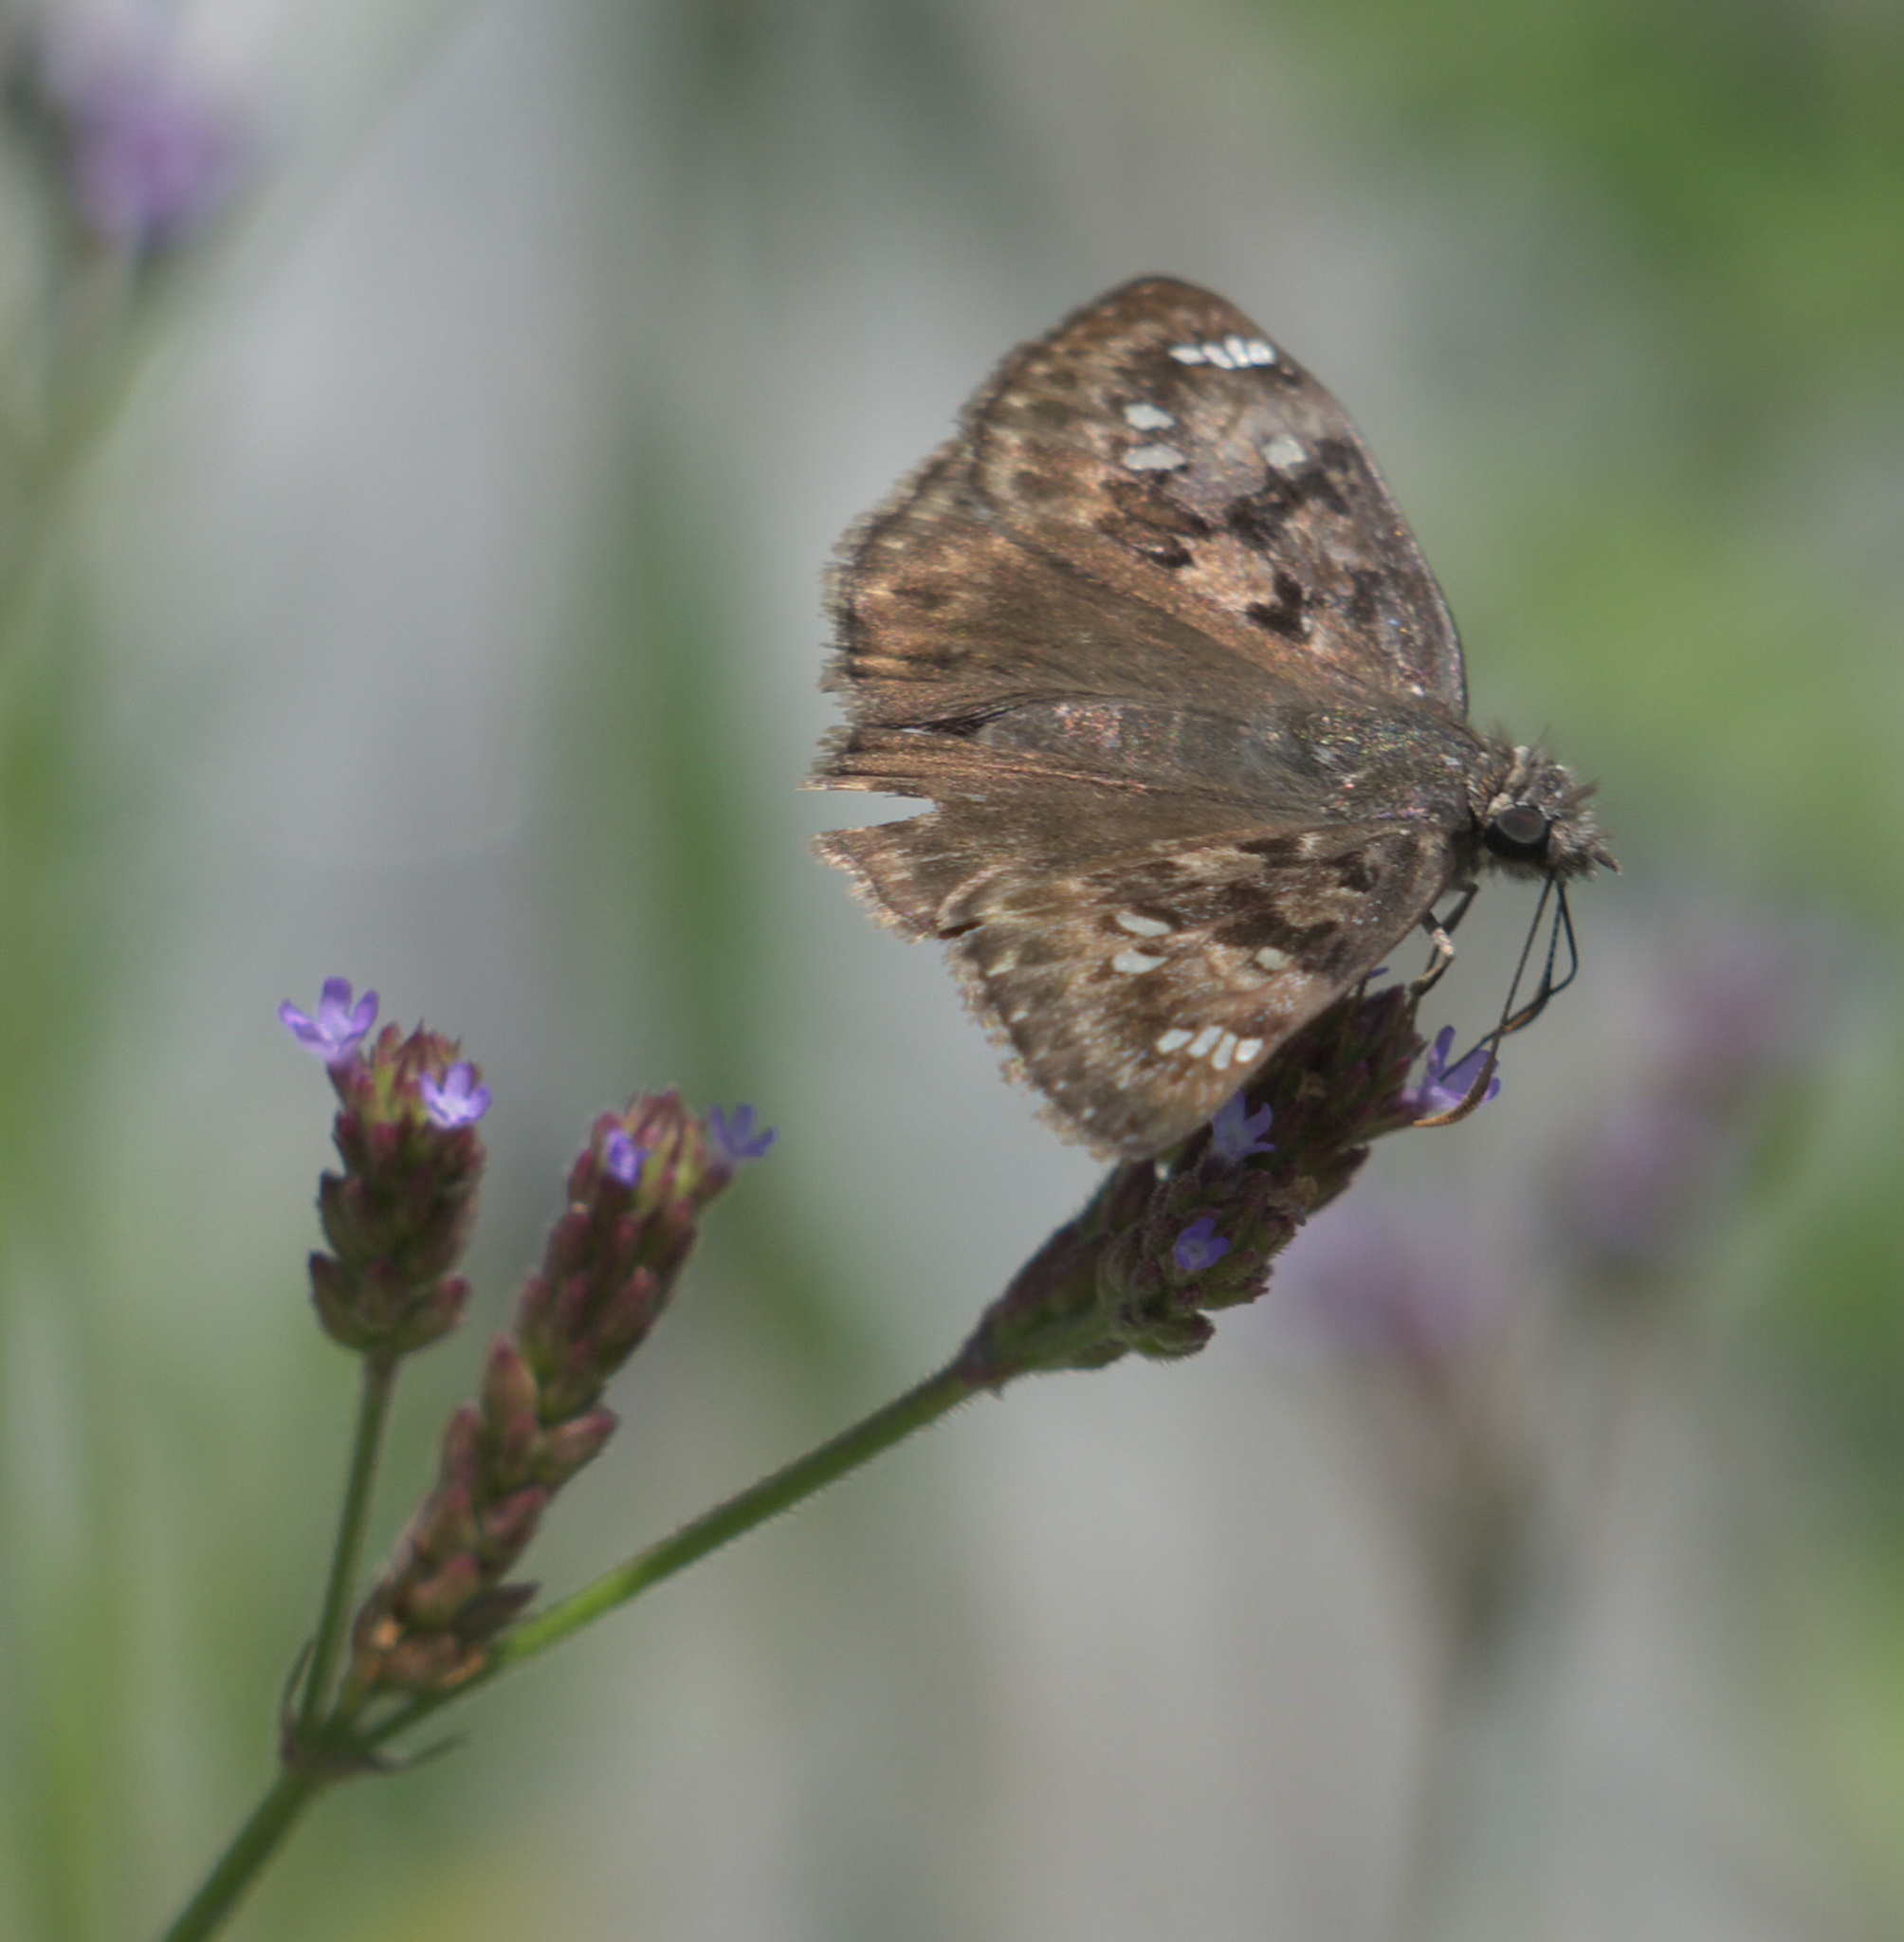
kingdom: Animalia
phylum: Arthropoda
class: Insecta
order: Lepidoptera
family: Hesperiidae
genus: Erynnis
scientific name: Erynnis horatius
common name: Horace's duskywing
